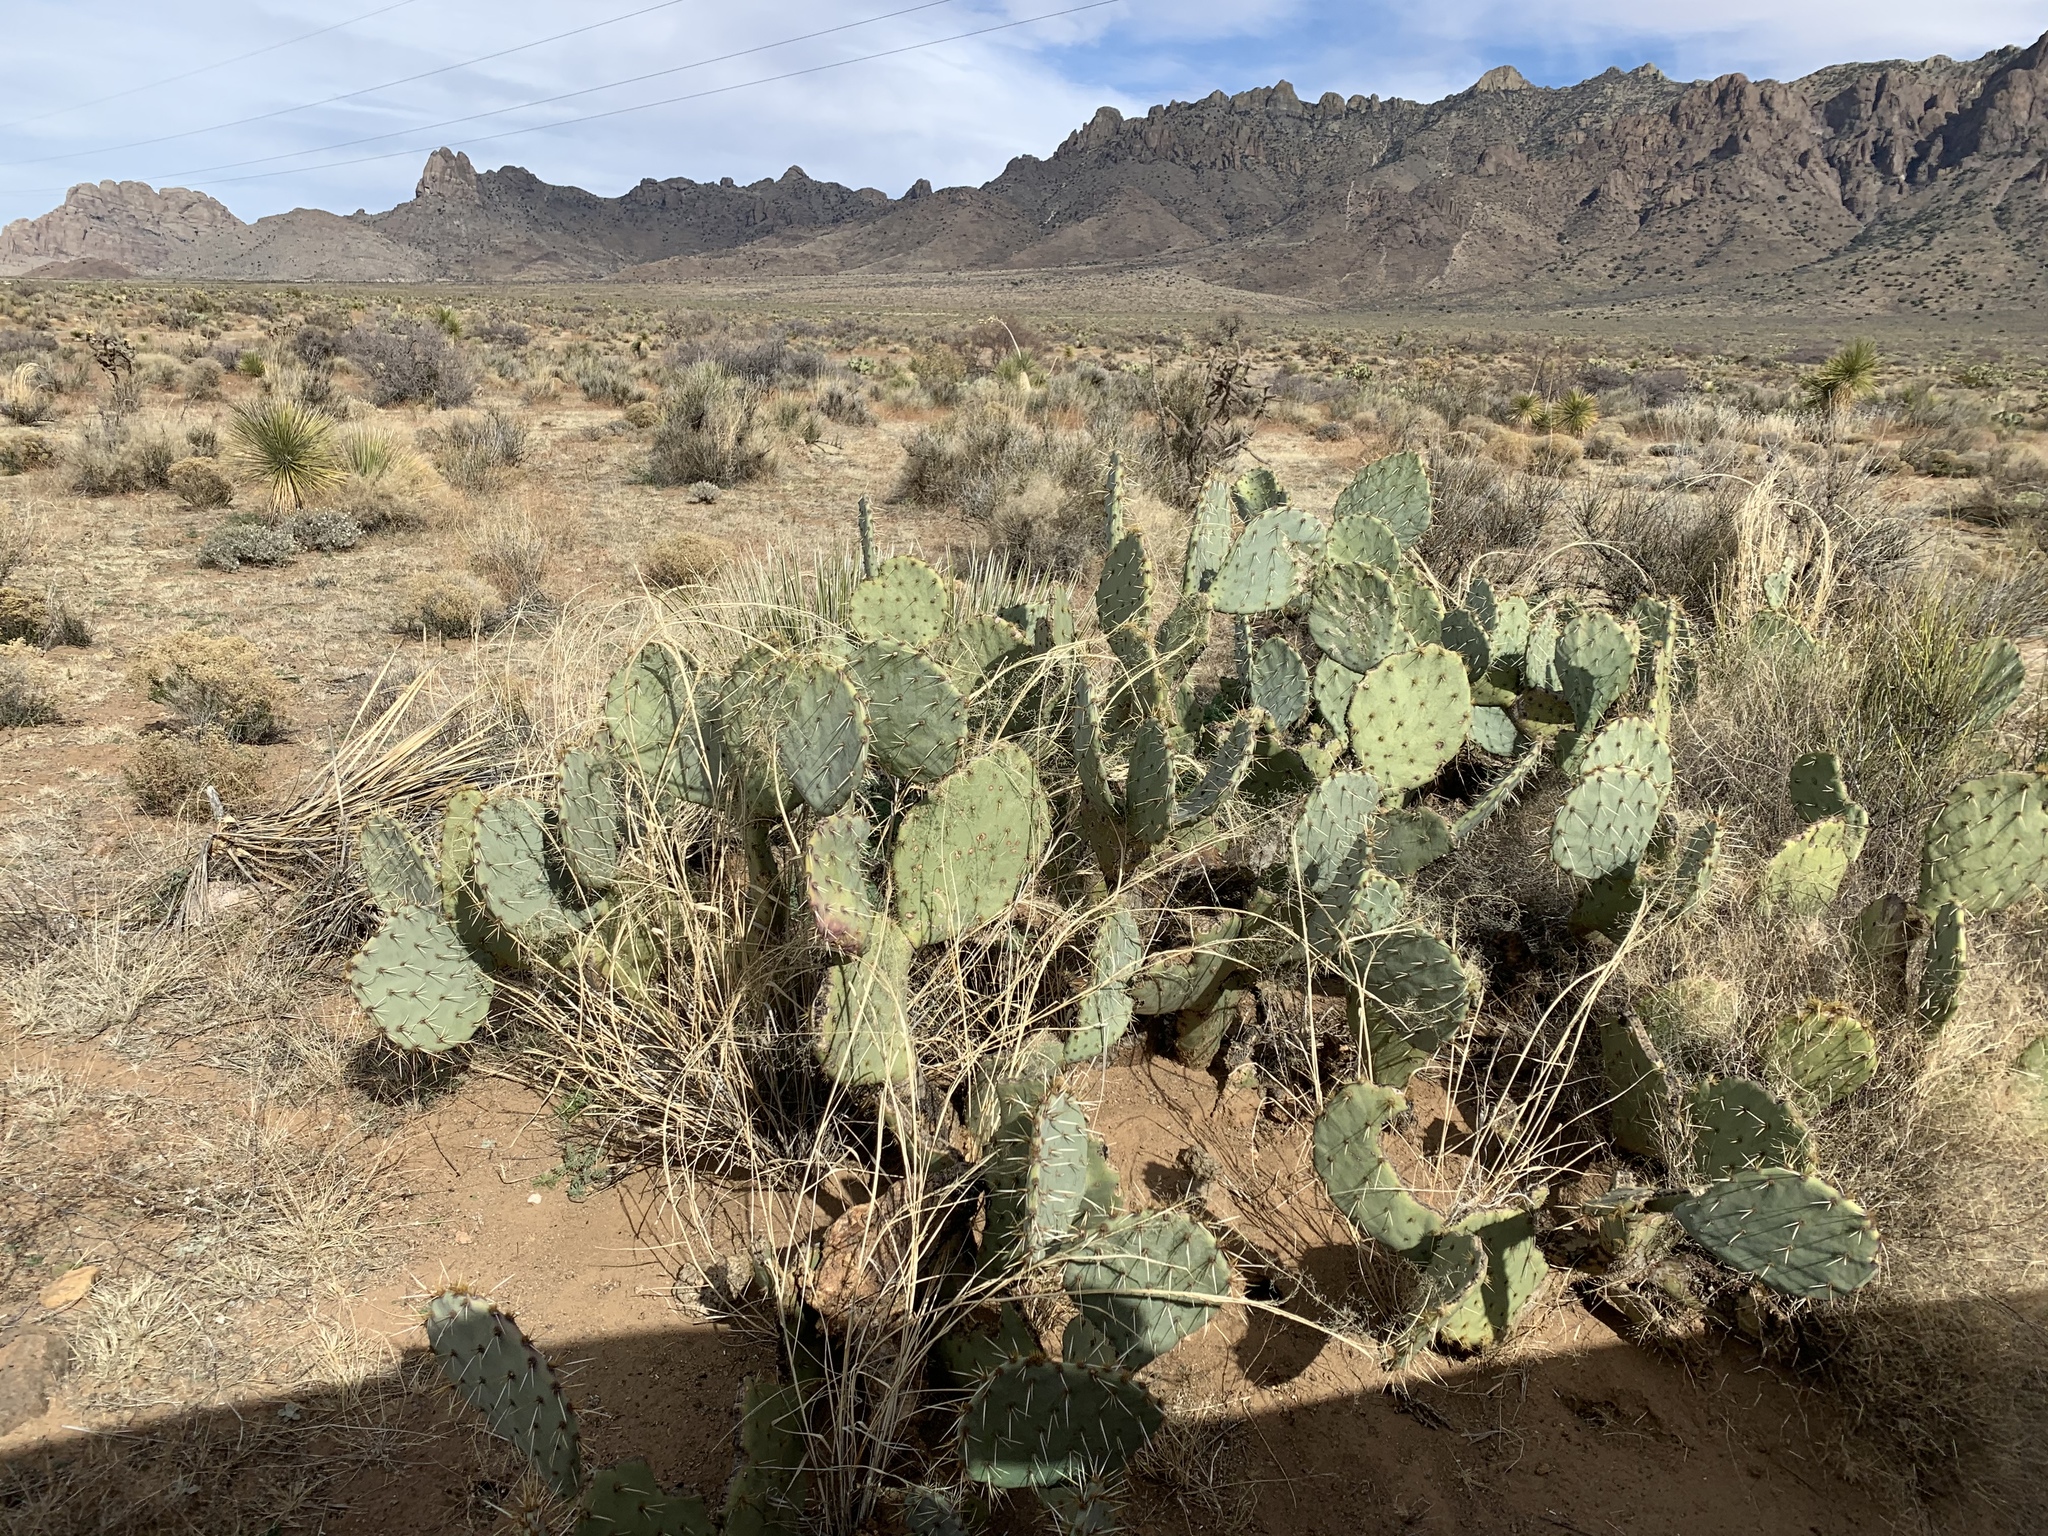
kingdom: Plantae
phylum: Tracheophyta
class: Magnoliopsida
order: Caryophyllales
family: Cactaceae
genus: Opuntia
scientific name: Opuntia engelmannii
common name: Cactus-apple
